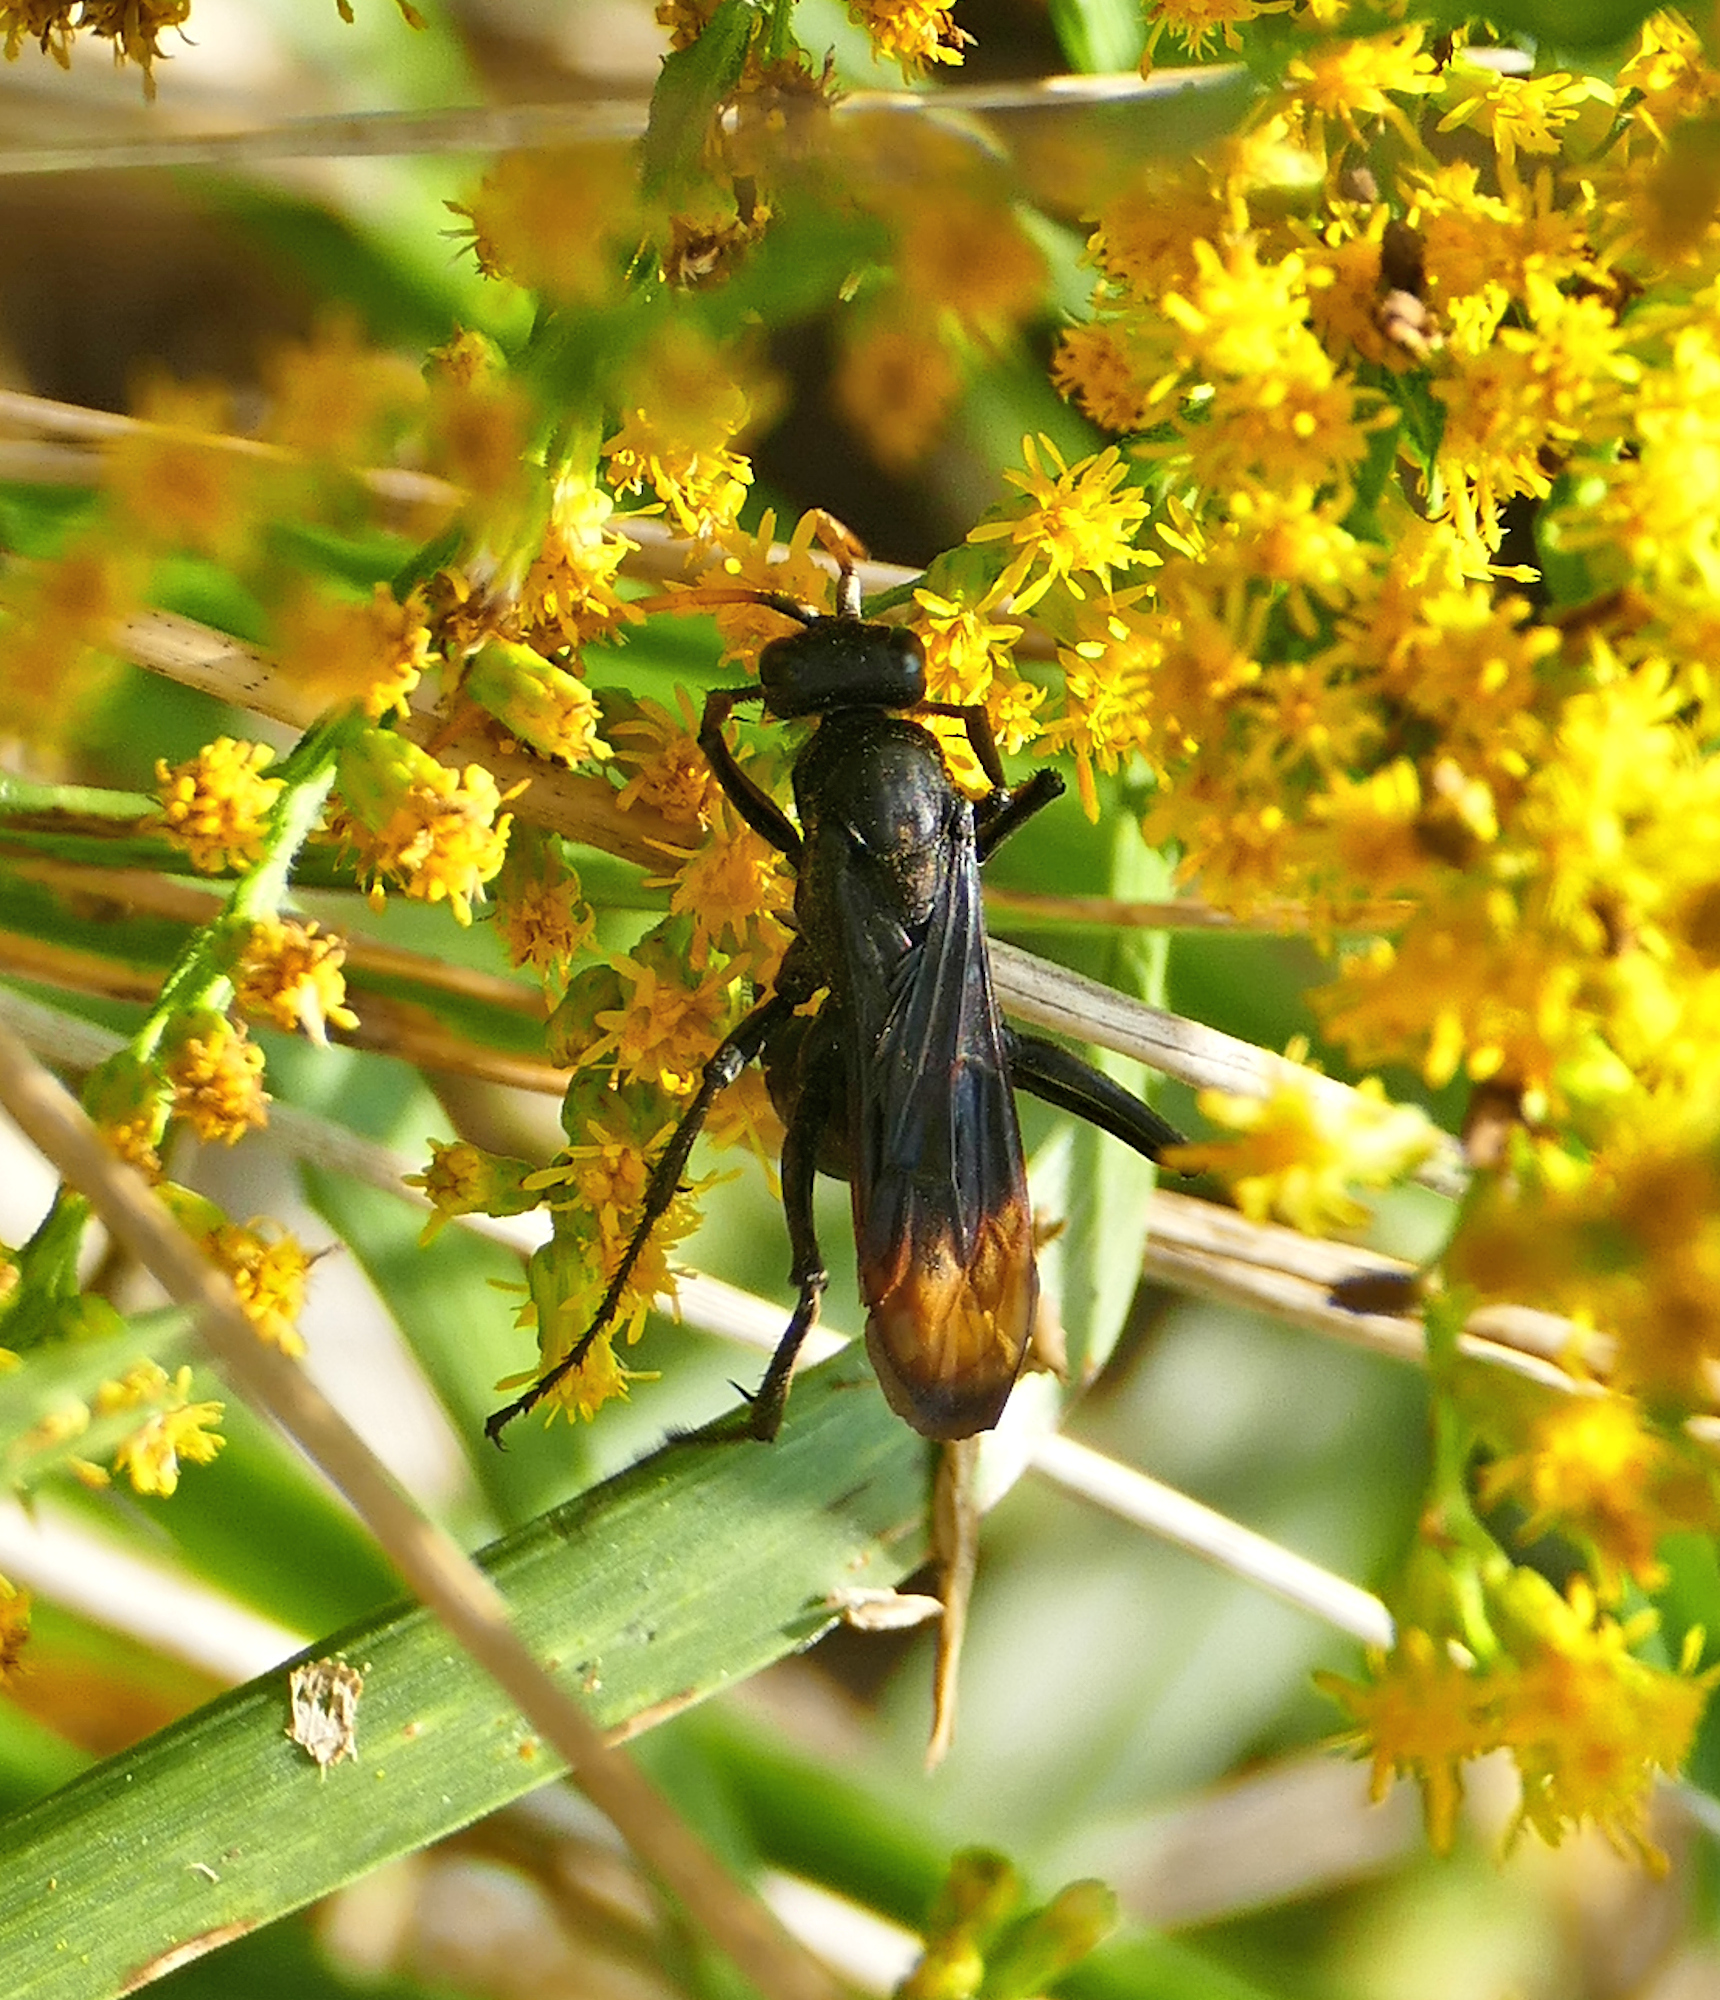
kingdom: Animalia
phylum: Arthropoda
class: Insecta
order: Hymenoptera
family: Pompilidae
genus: Entypus
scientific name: Entypus unifasciatus
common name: Eastern tawny-horned spider wasp
